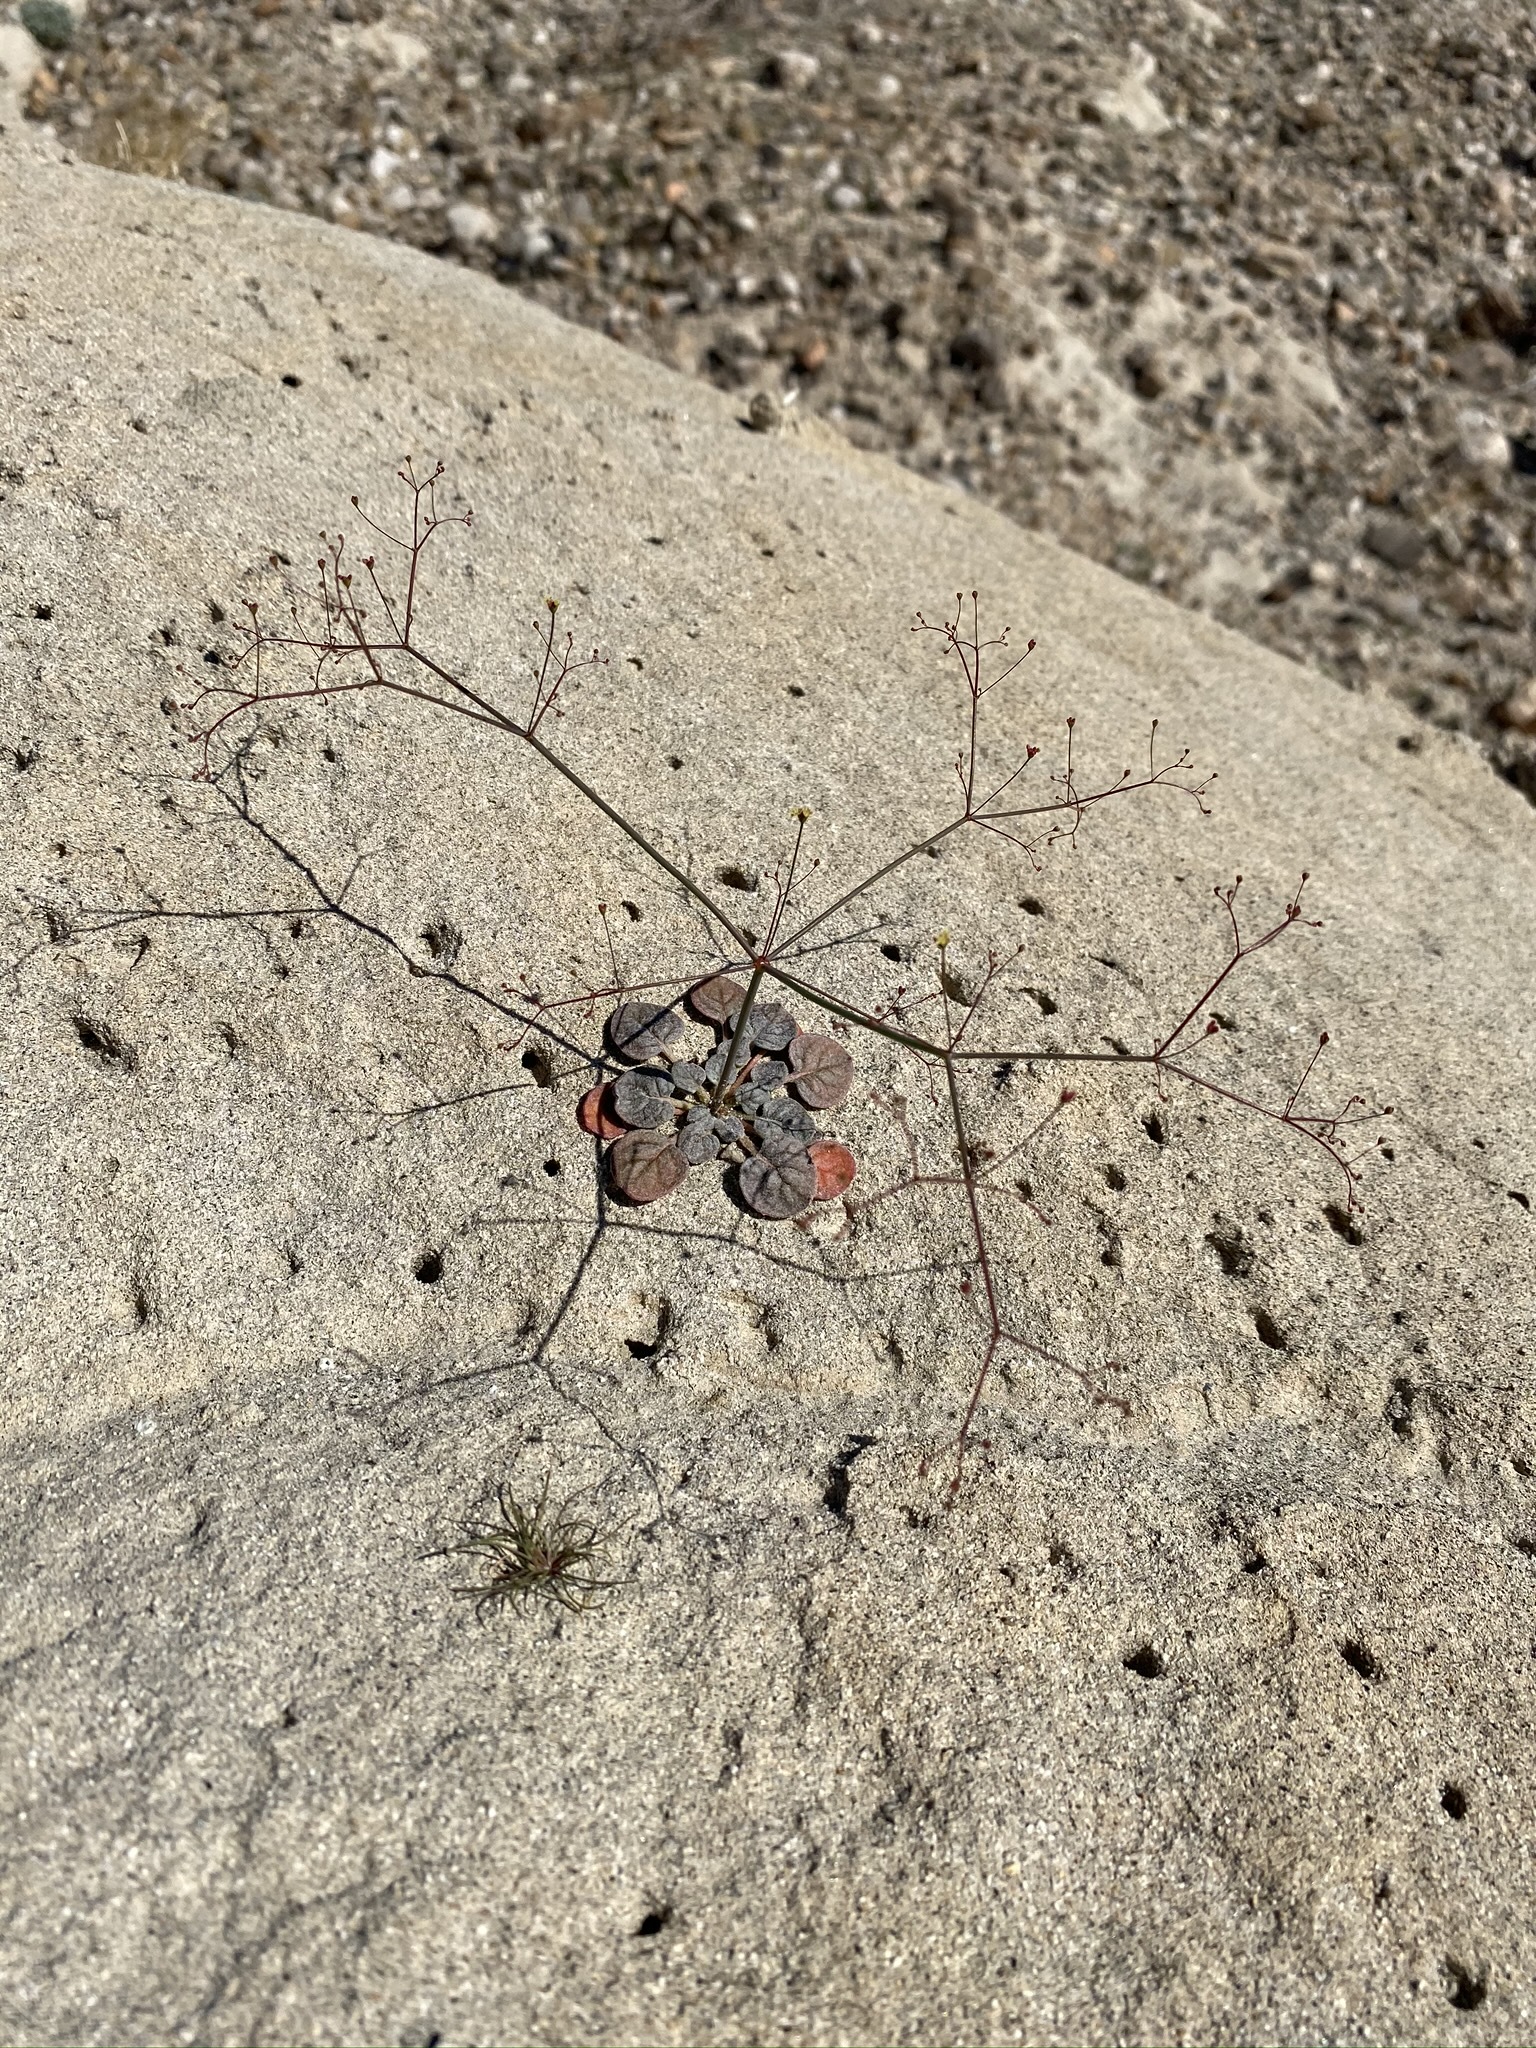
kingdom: Plantae
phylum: Tracheophyta
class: Magnoliopsida
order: Caryophyllales
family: Polygonaceae
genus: Eriogonum
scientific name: Eriogonum thomasii
